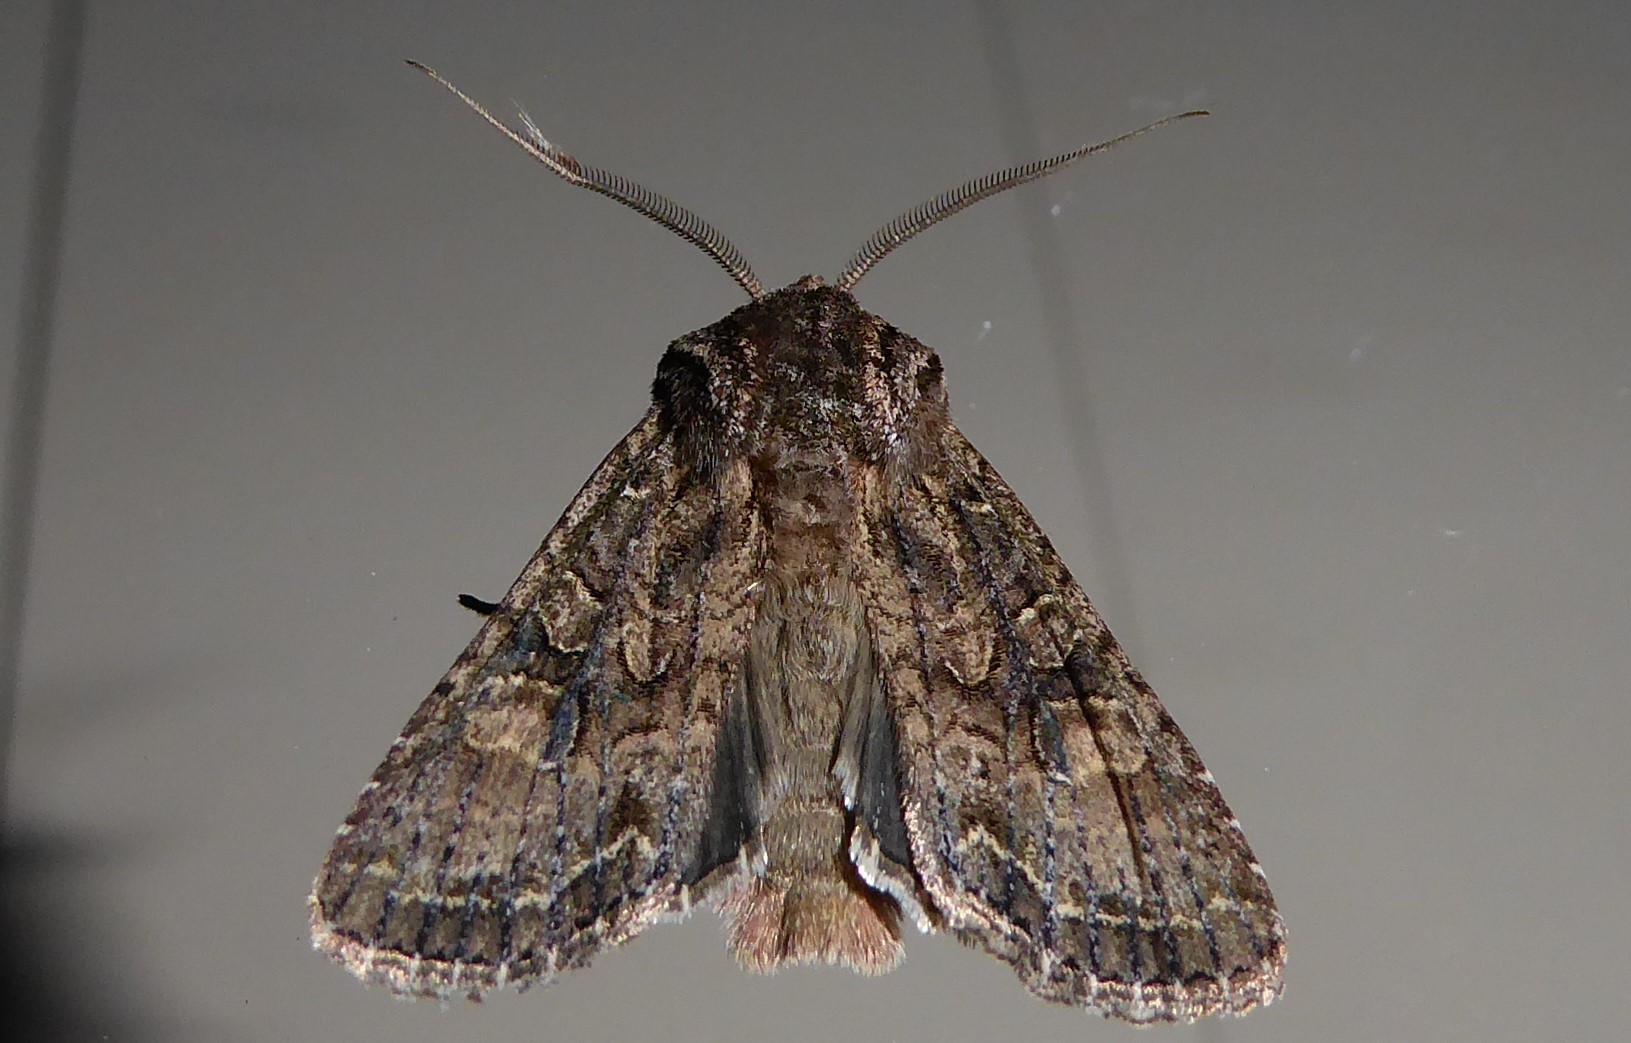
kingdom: Animalia
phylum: Arthropoda
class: Insecta
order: Lepidoptera
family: Noctuidae
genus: Ichneutica
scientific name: Ichneutica mutans
